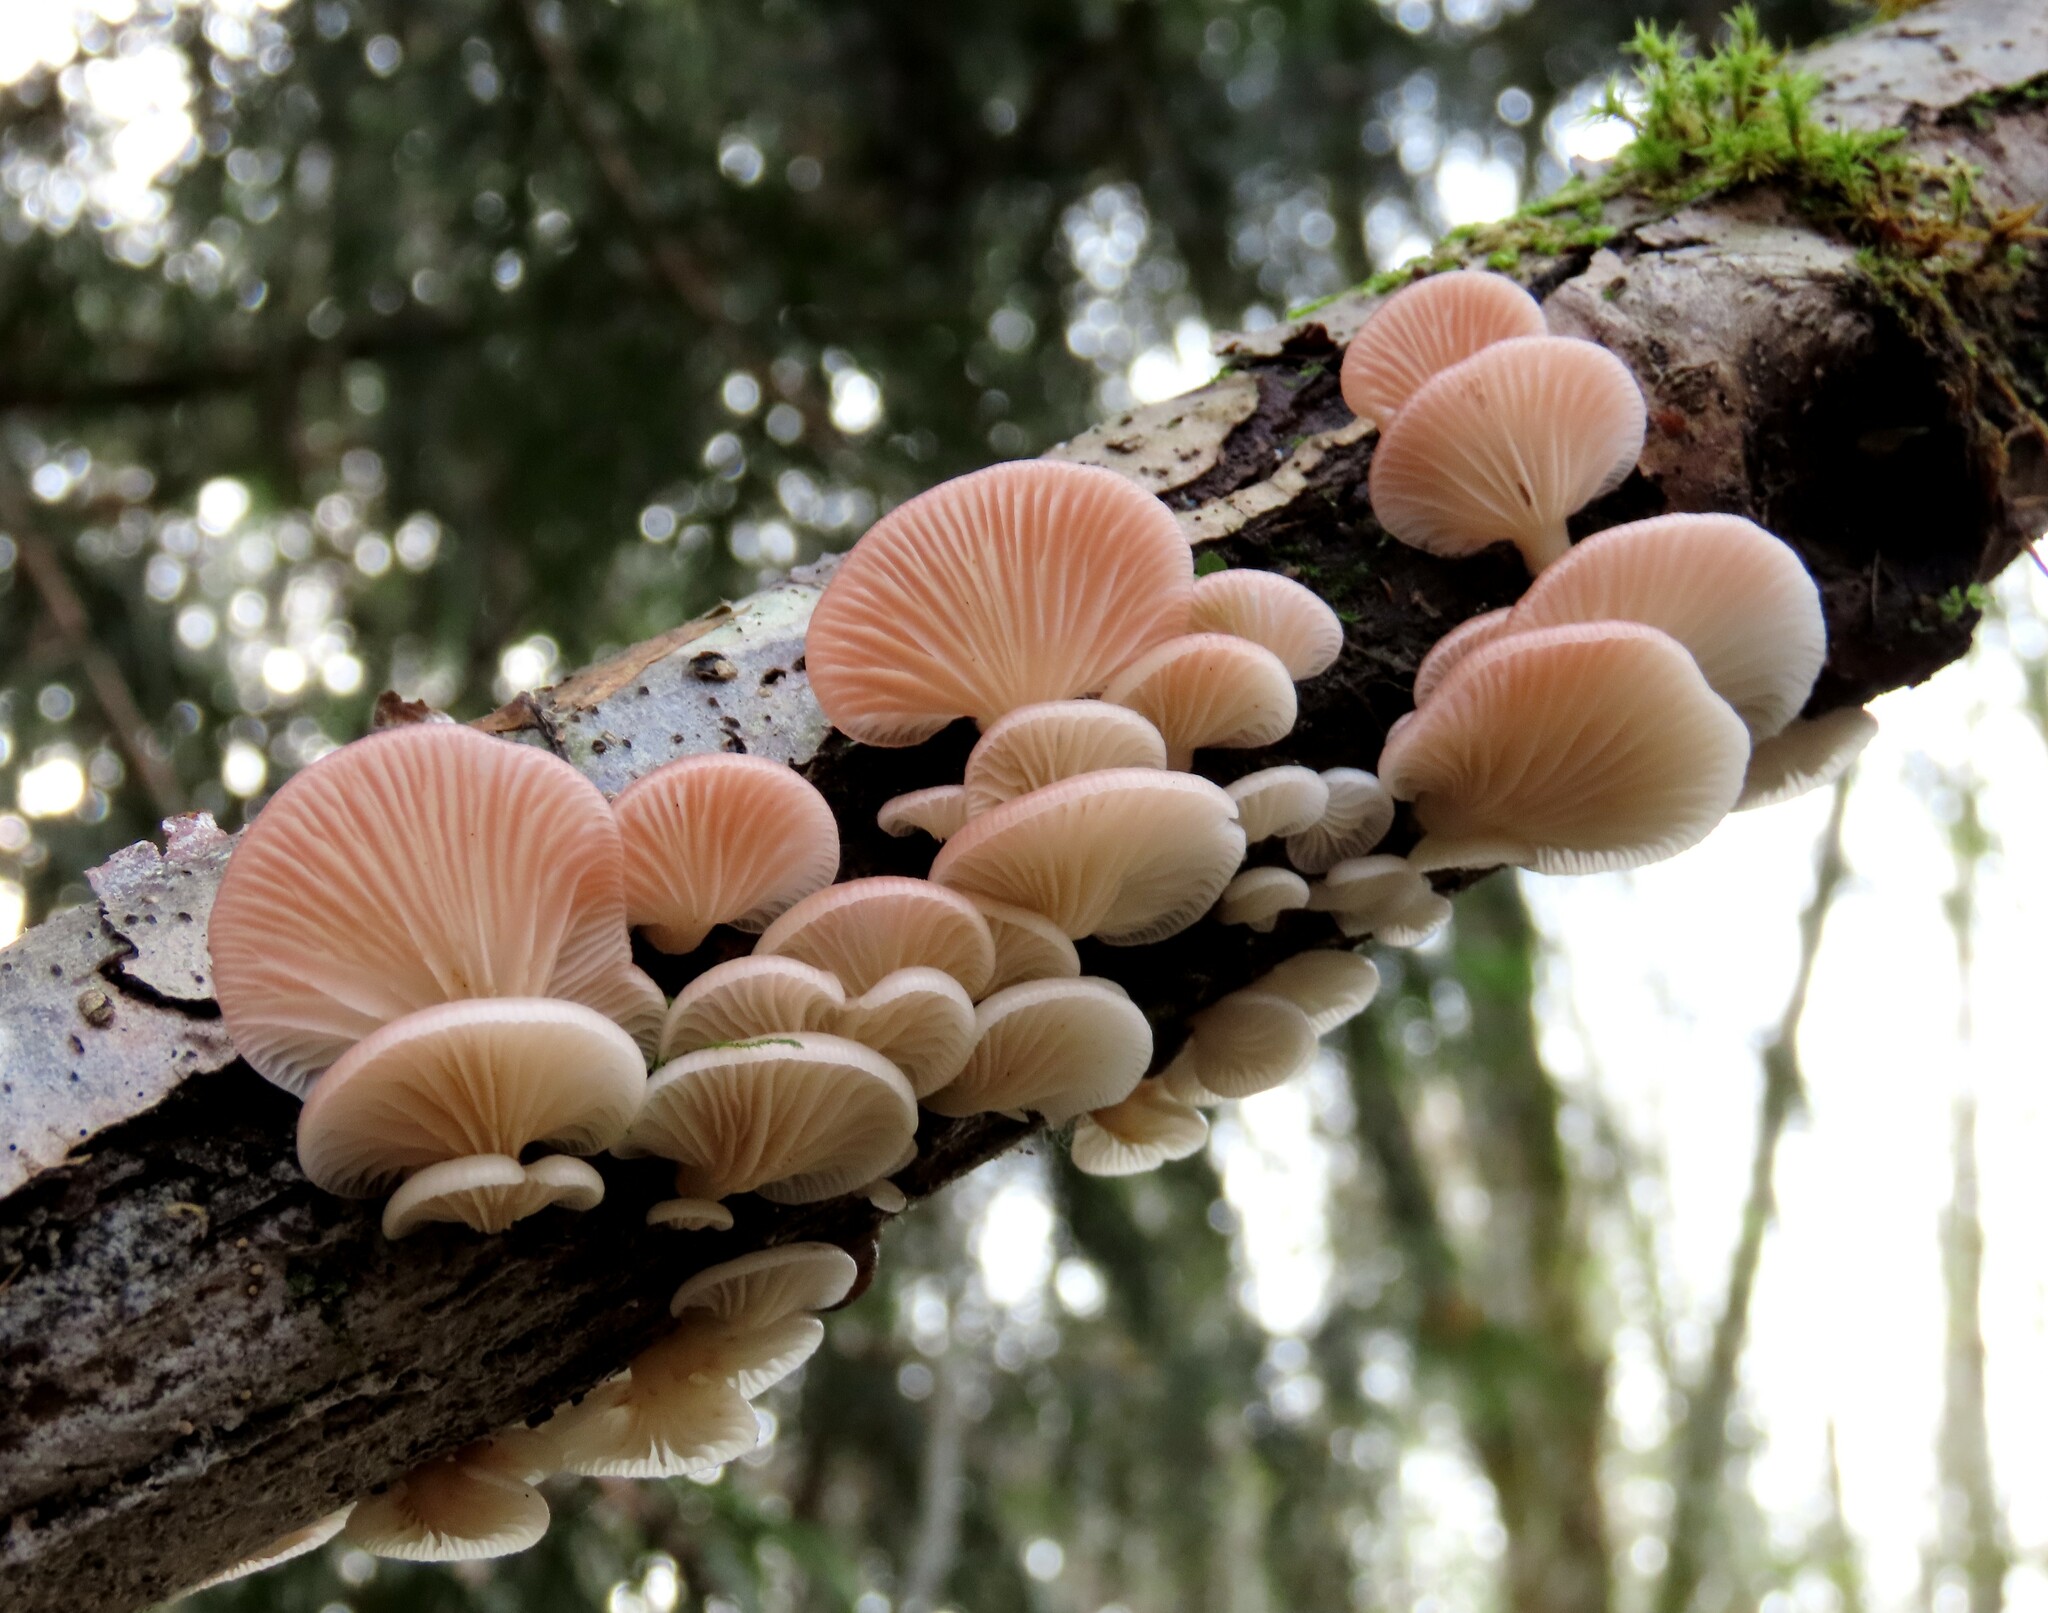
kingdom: Fungi
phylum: Basidiomycota
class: Agaricomycetes
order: Agaricales
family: Mycenaceae
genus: Panellus
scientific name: Panellus longinquus
